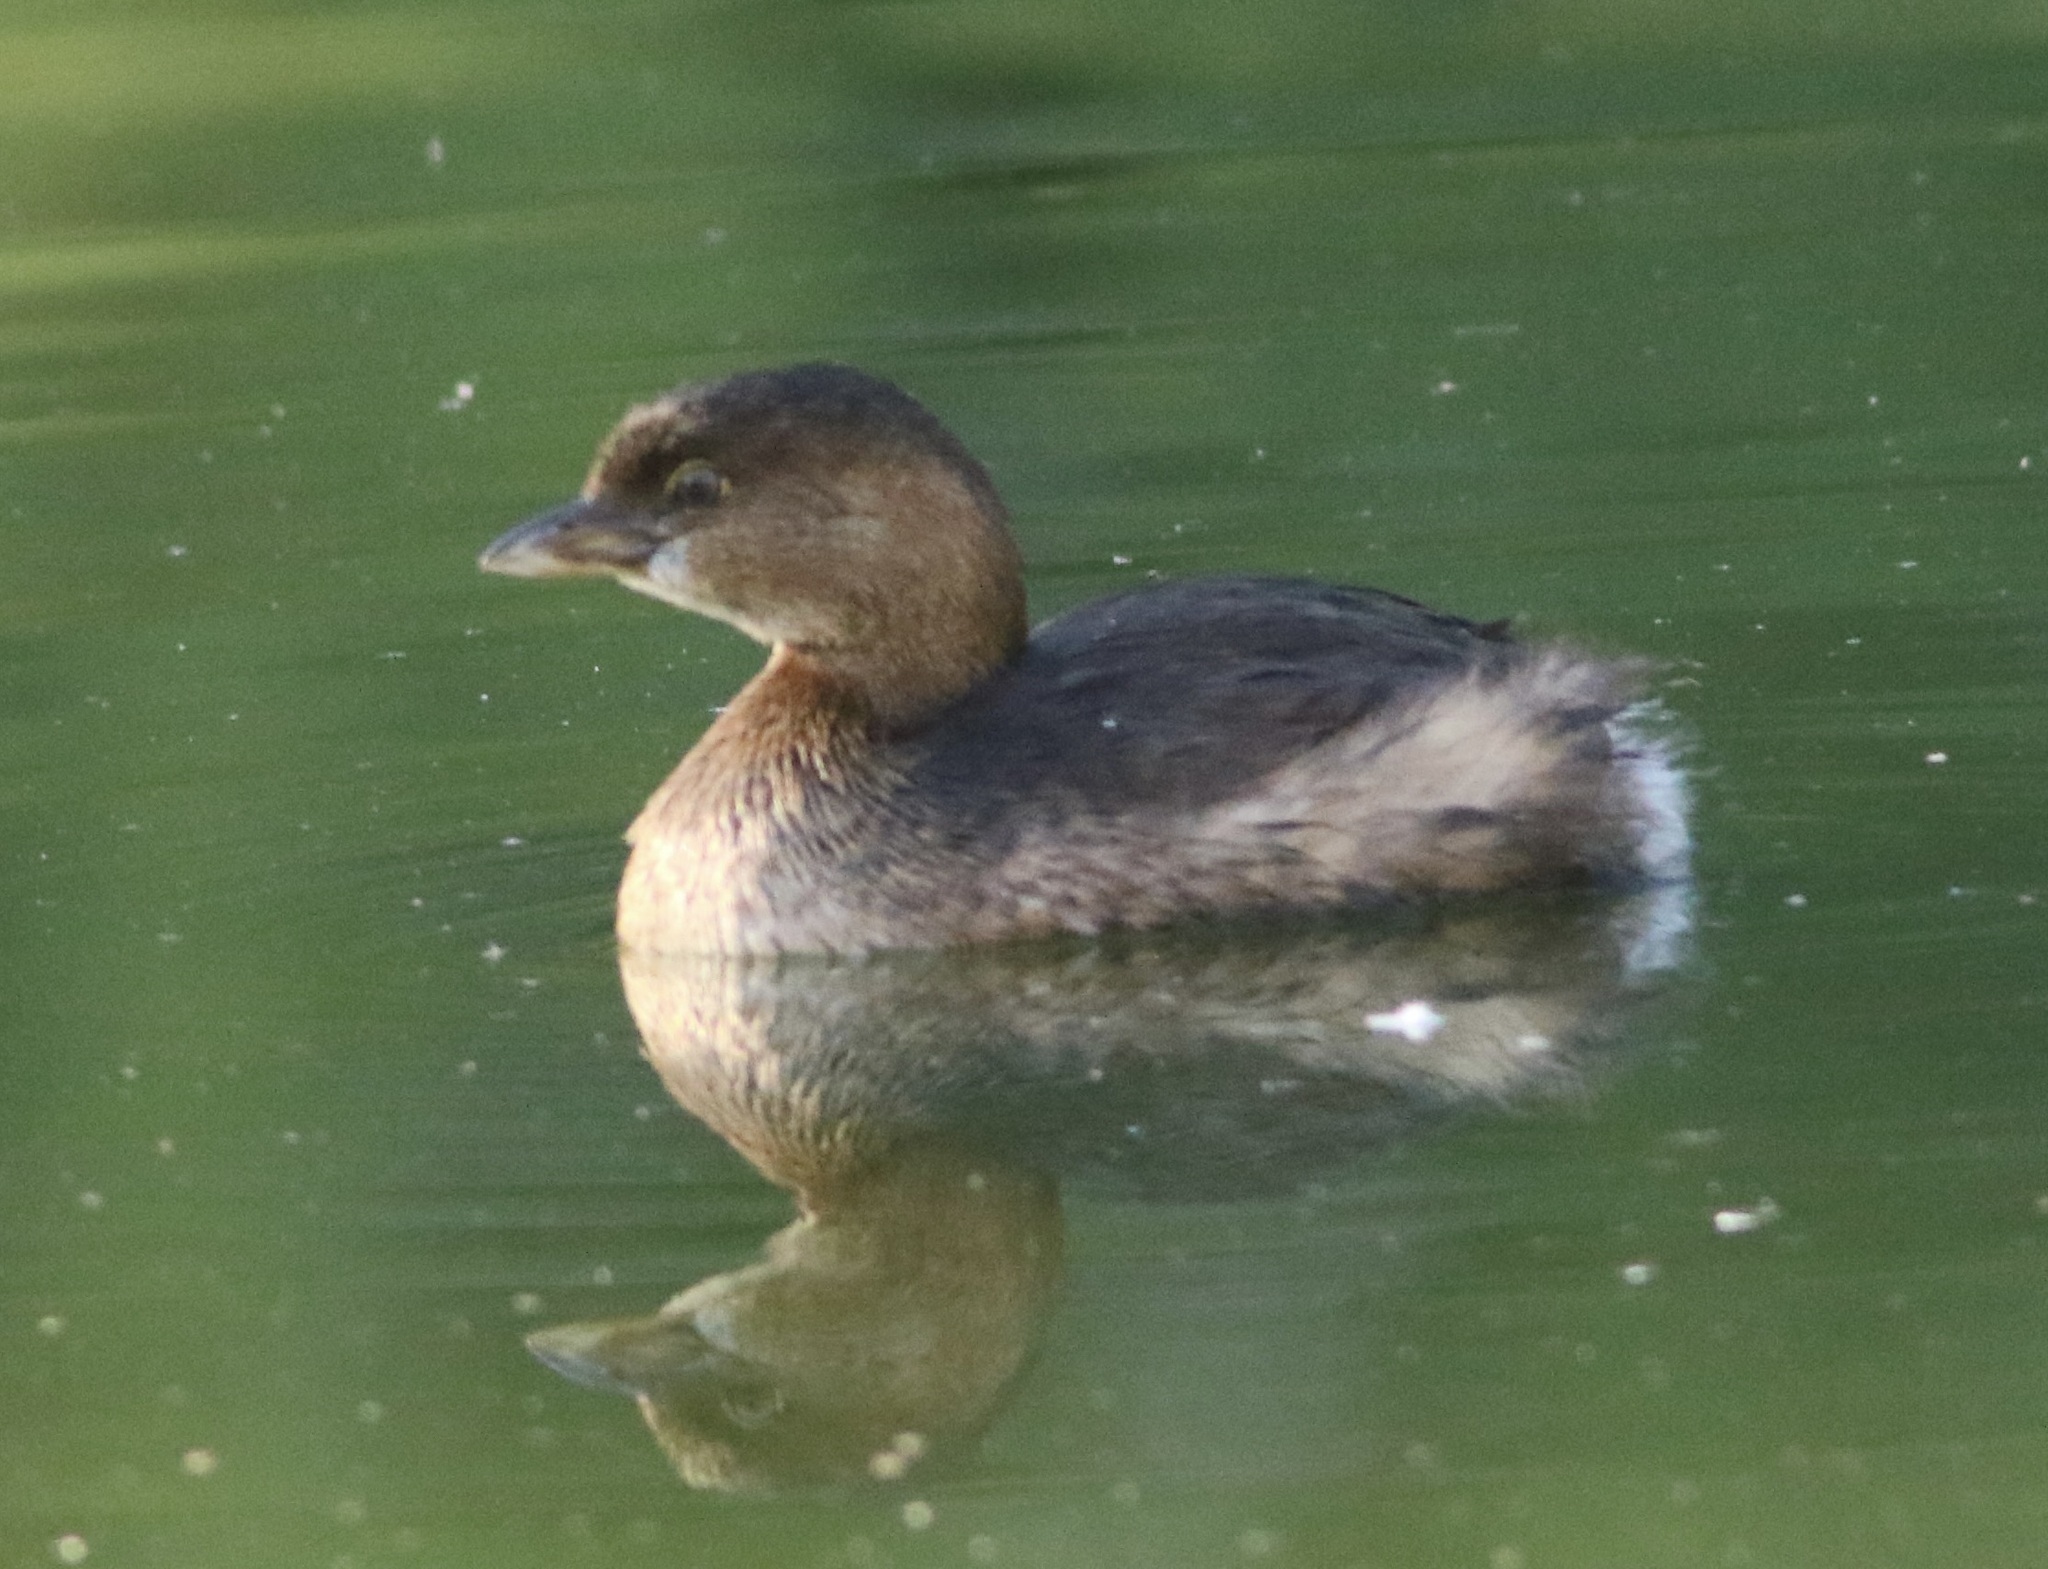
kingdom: Animalia
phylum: Chordata
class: Aves
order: Podicipediformes
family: Podicipedidae
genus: Podilymbus
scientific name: Podilymbus podiceps
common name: Pied-billed grebe
